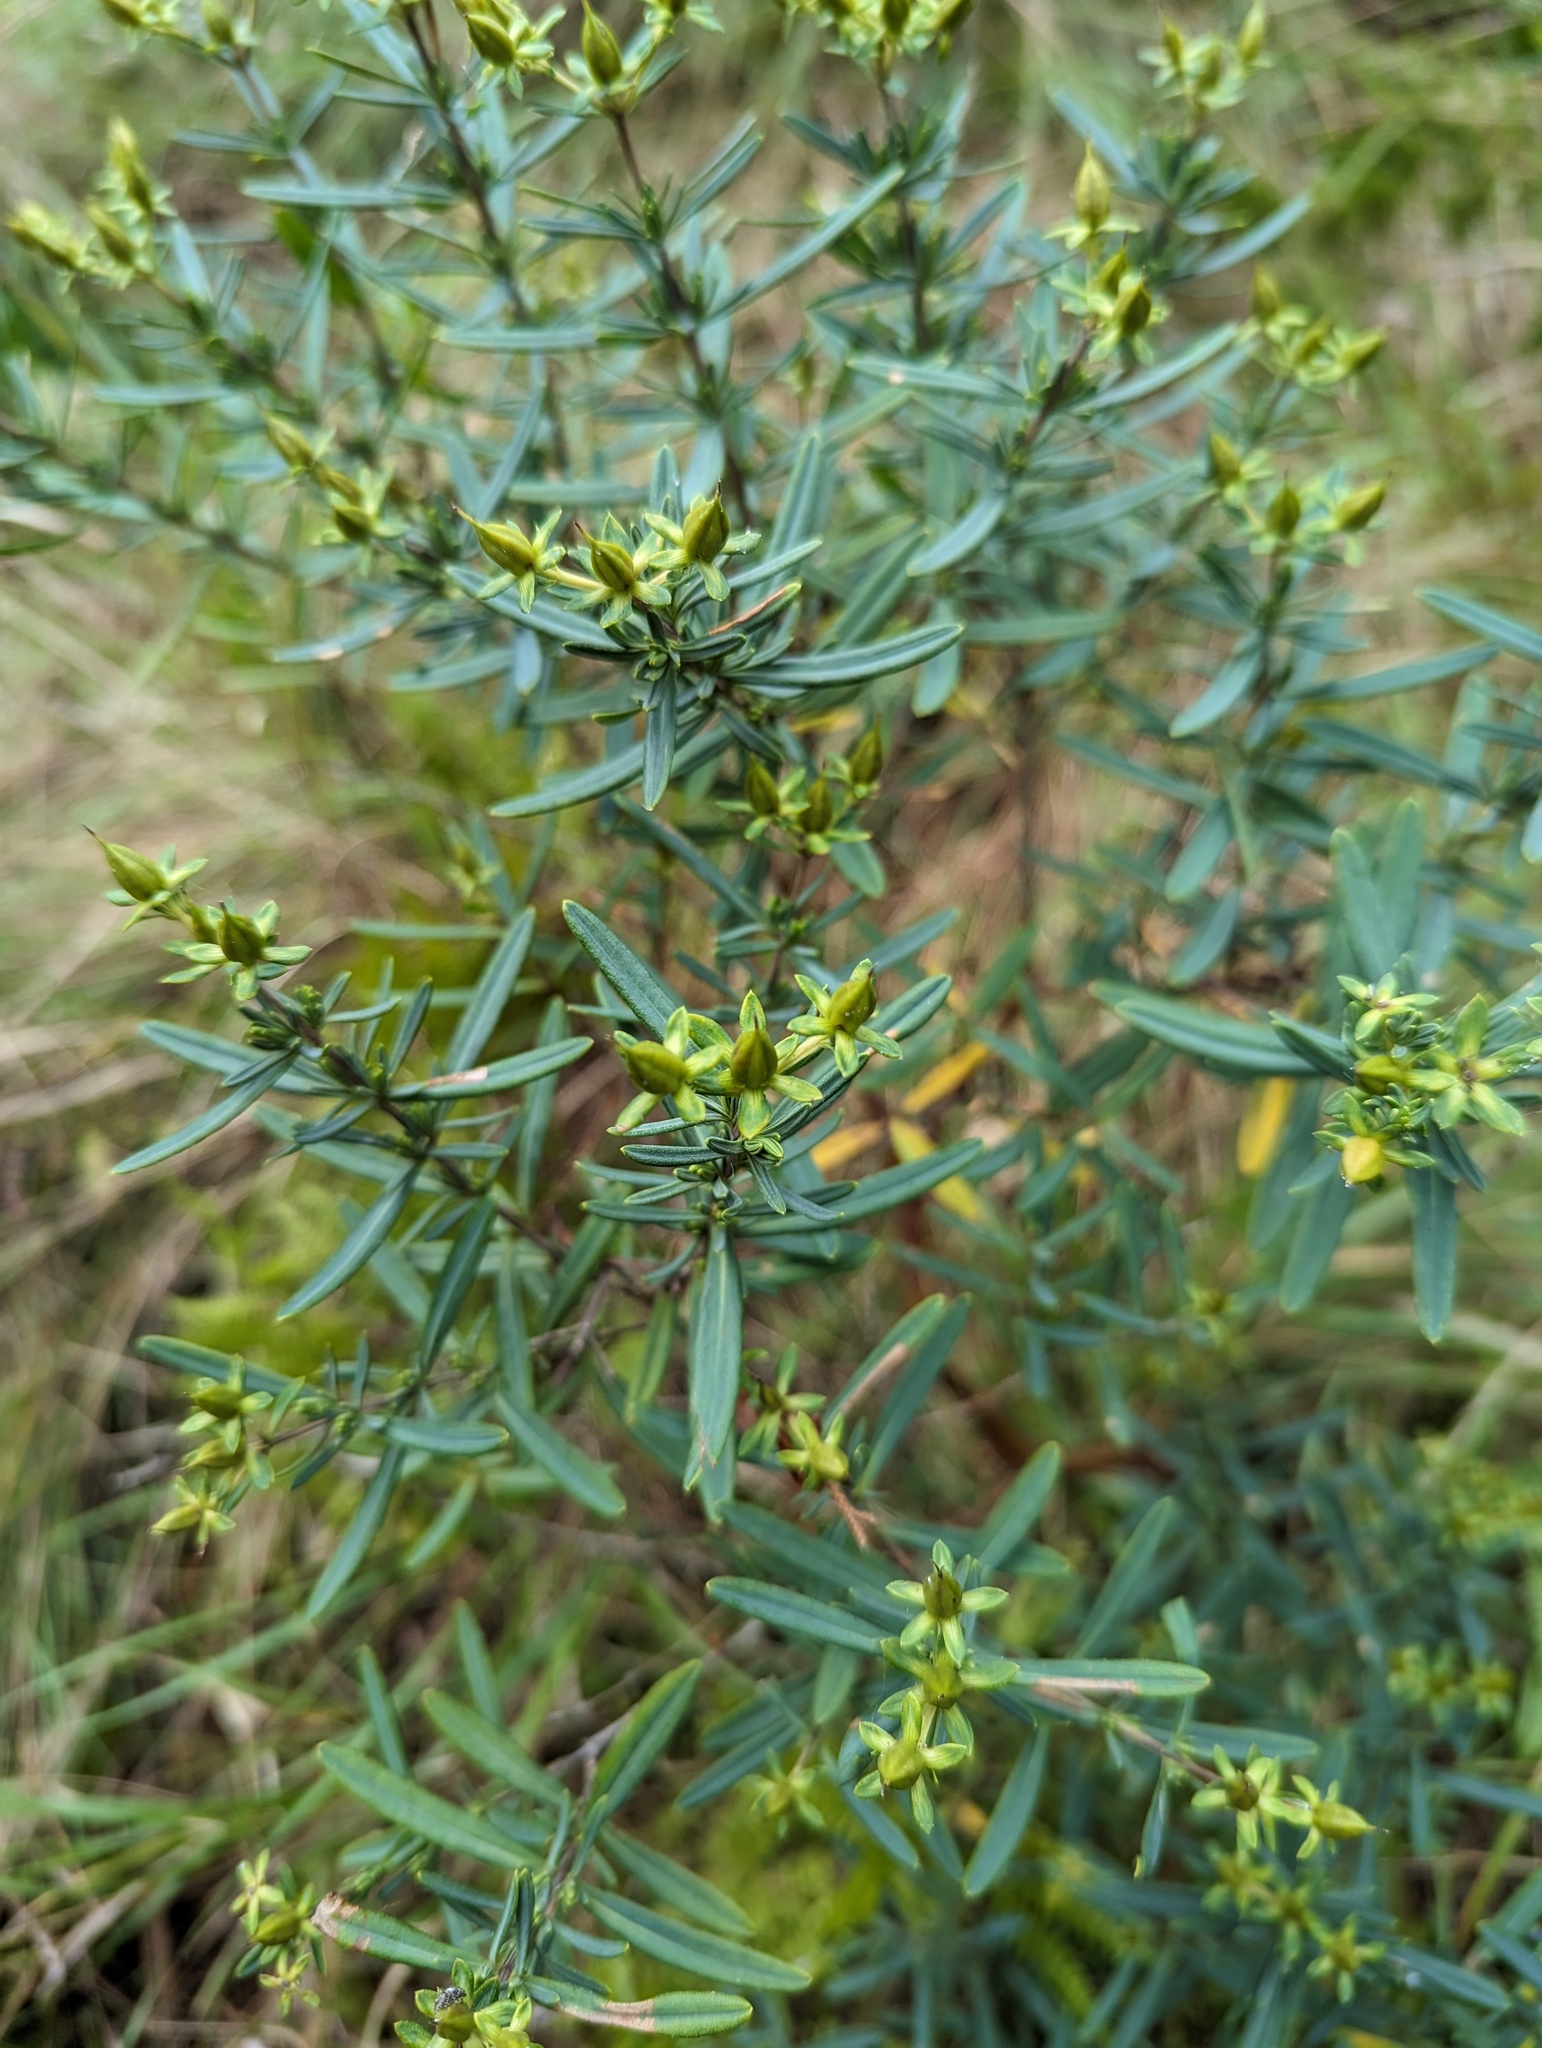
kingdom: Plantae
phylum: Tracheophyta
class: Magnoliopsida
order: Malpighiales
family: Hypericaceae
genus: Hypericum
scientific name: Hypericum kalmianum
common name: Kalm's st. john's-wort
